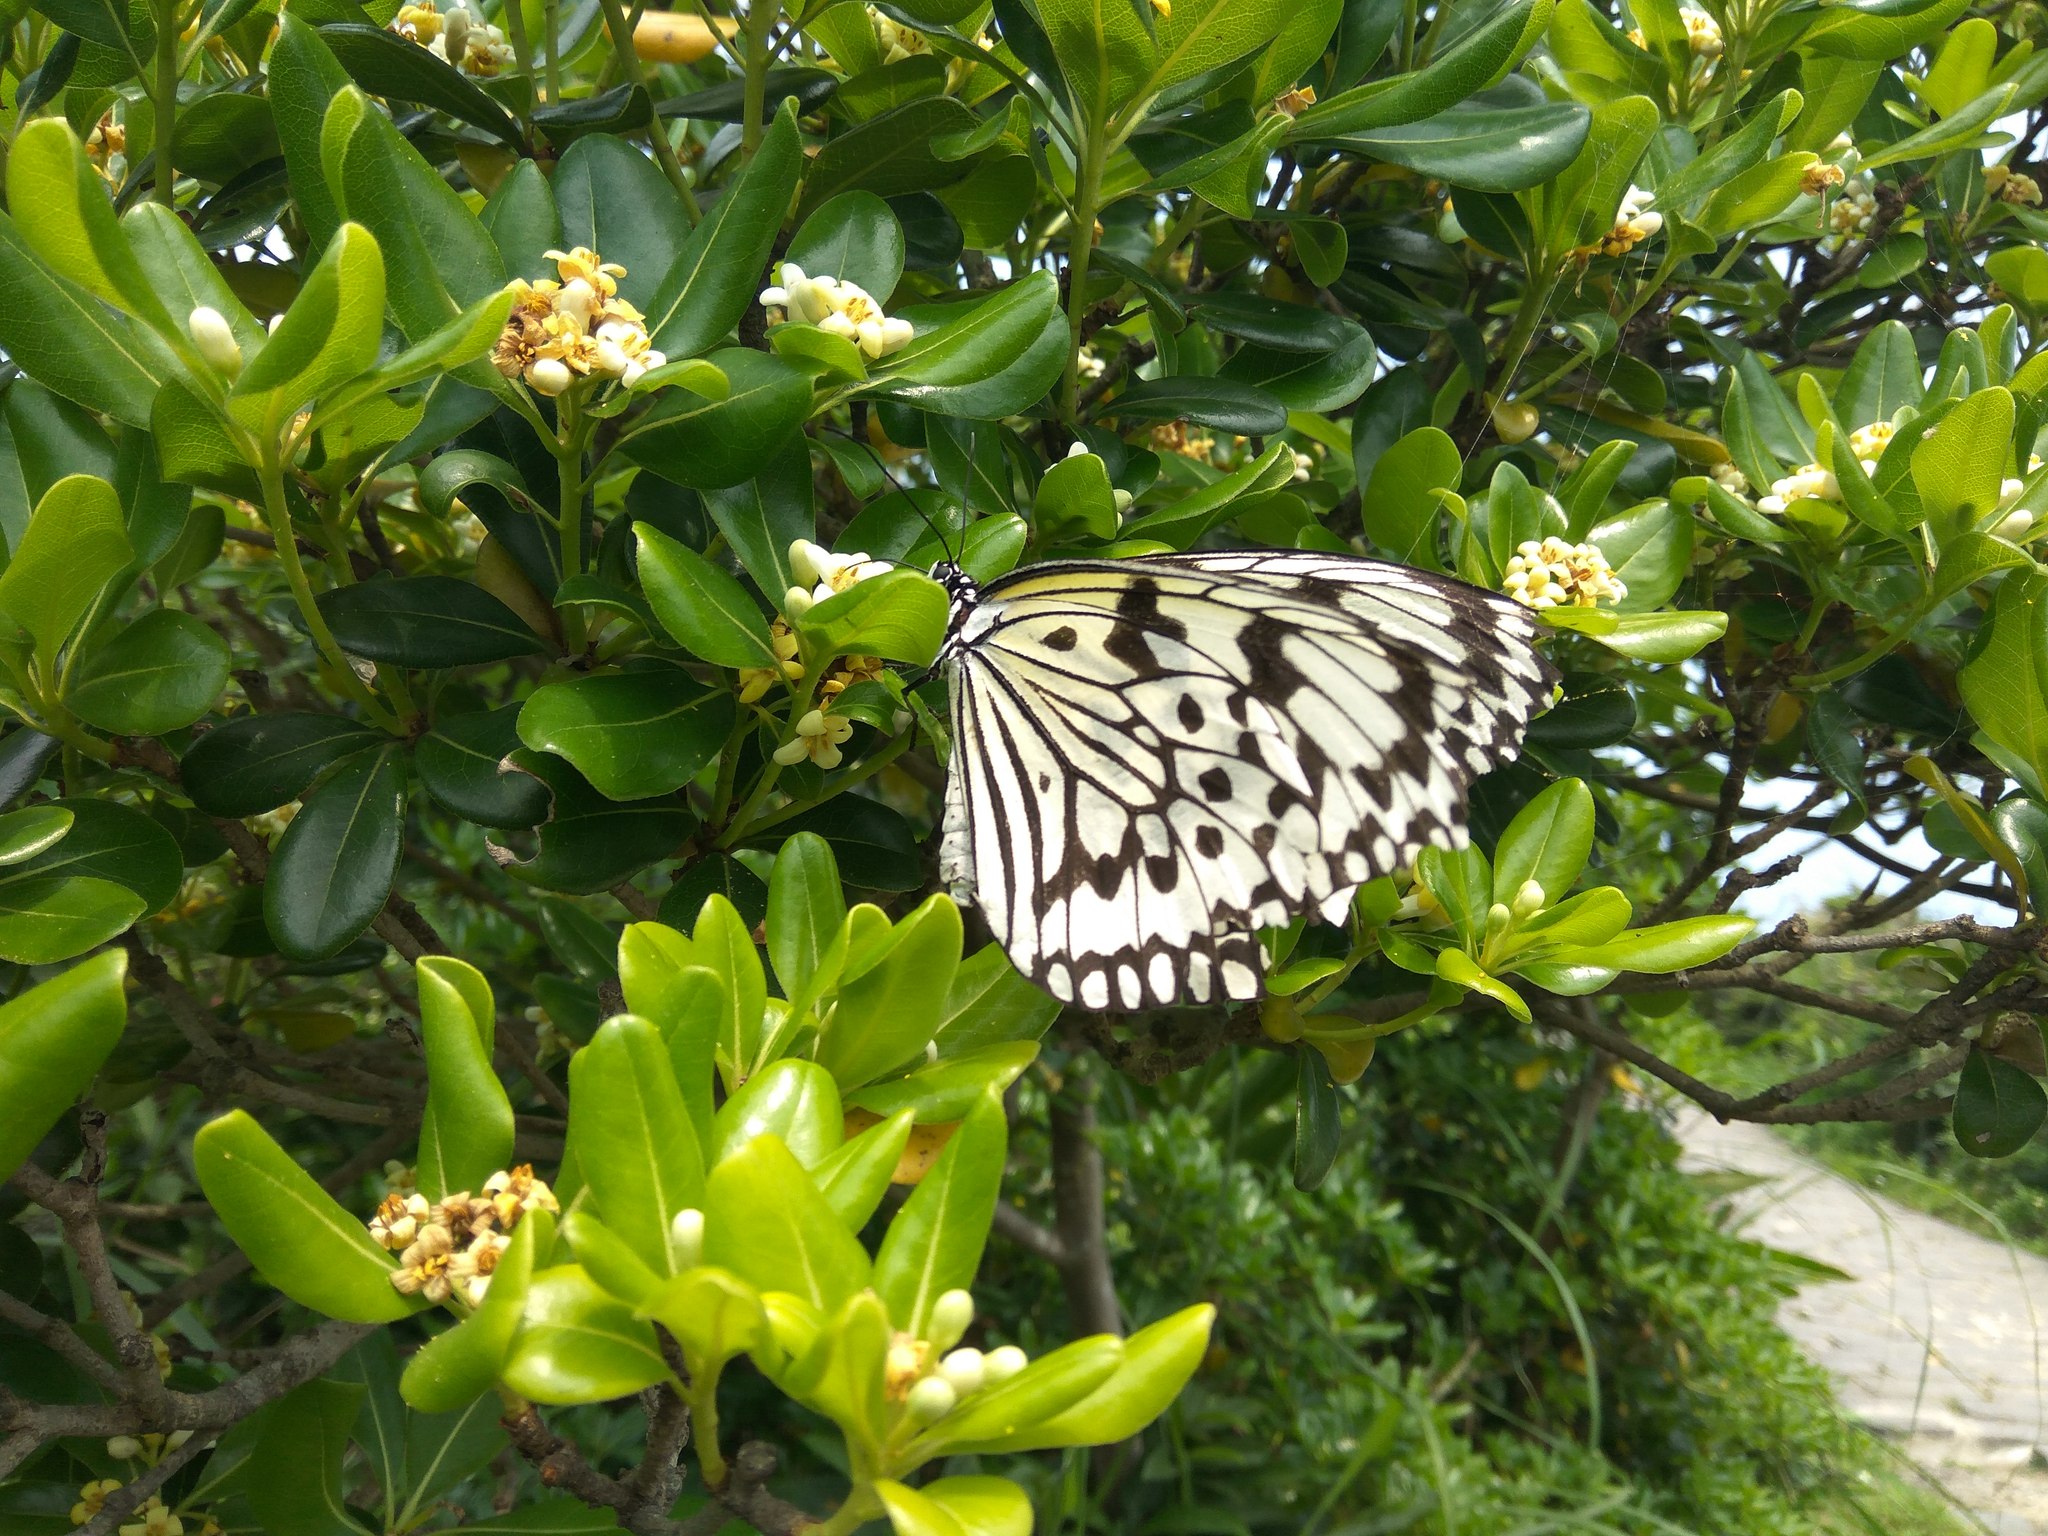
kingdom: Animalia
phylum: Arthropoda
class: Insecta
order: Lepidoptera
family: Nymphalidae
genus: Idea
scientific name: Idea leuconoe
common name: Rice paper butterfly
